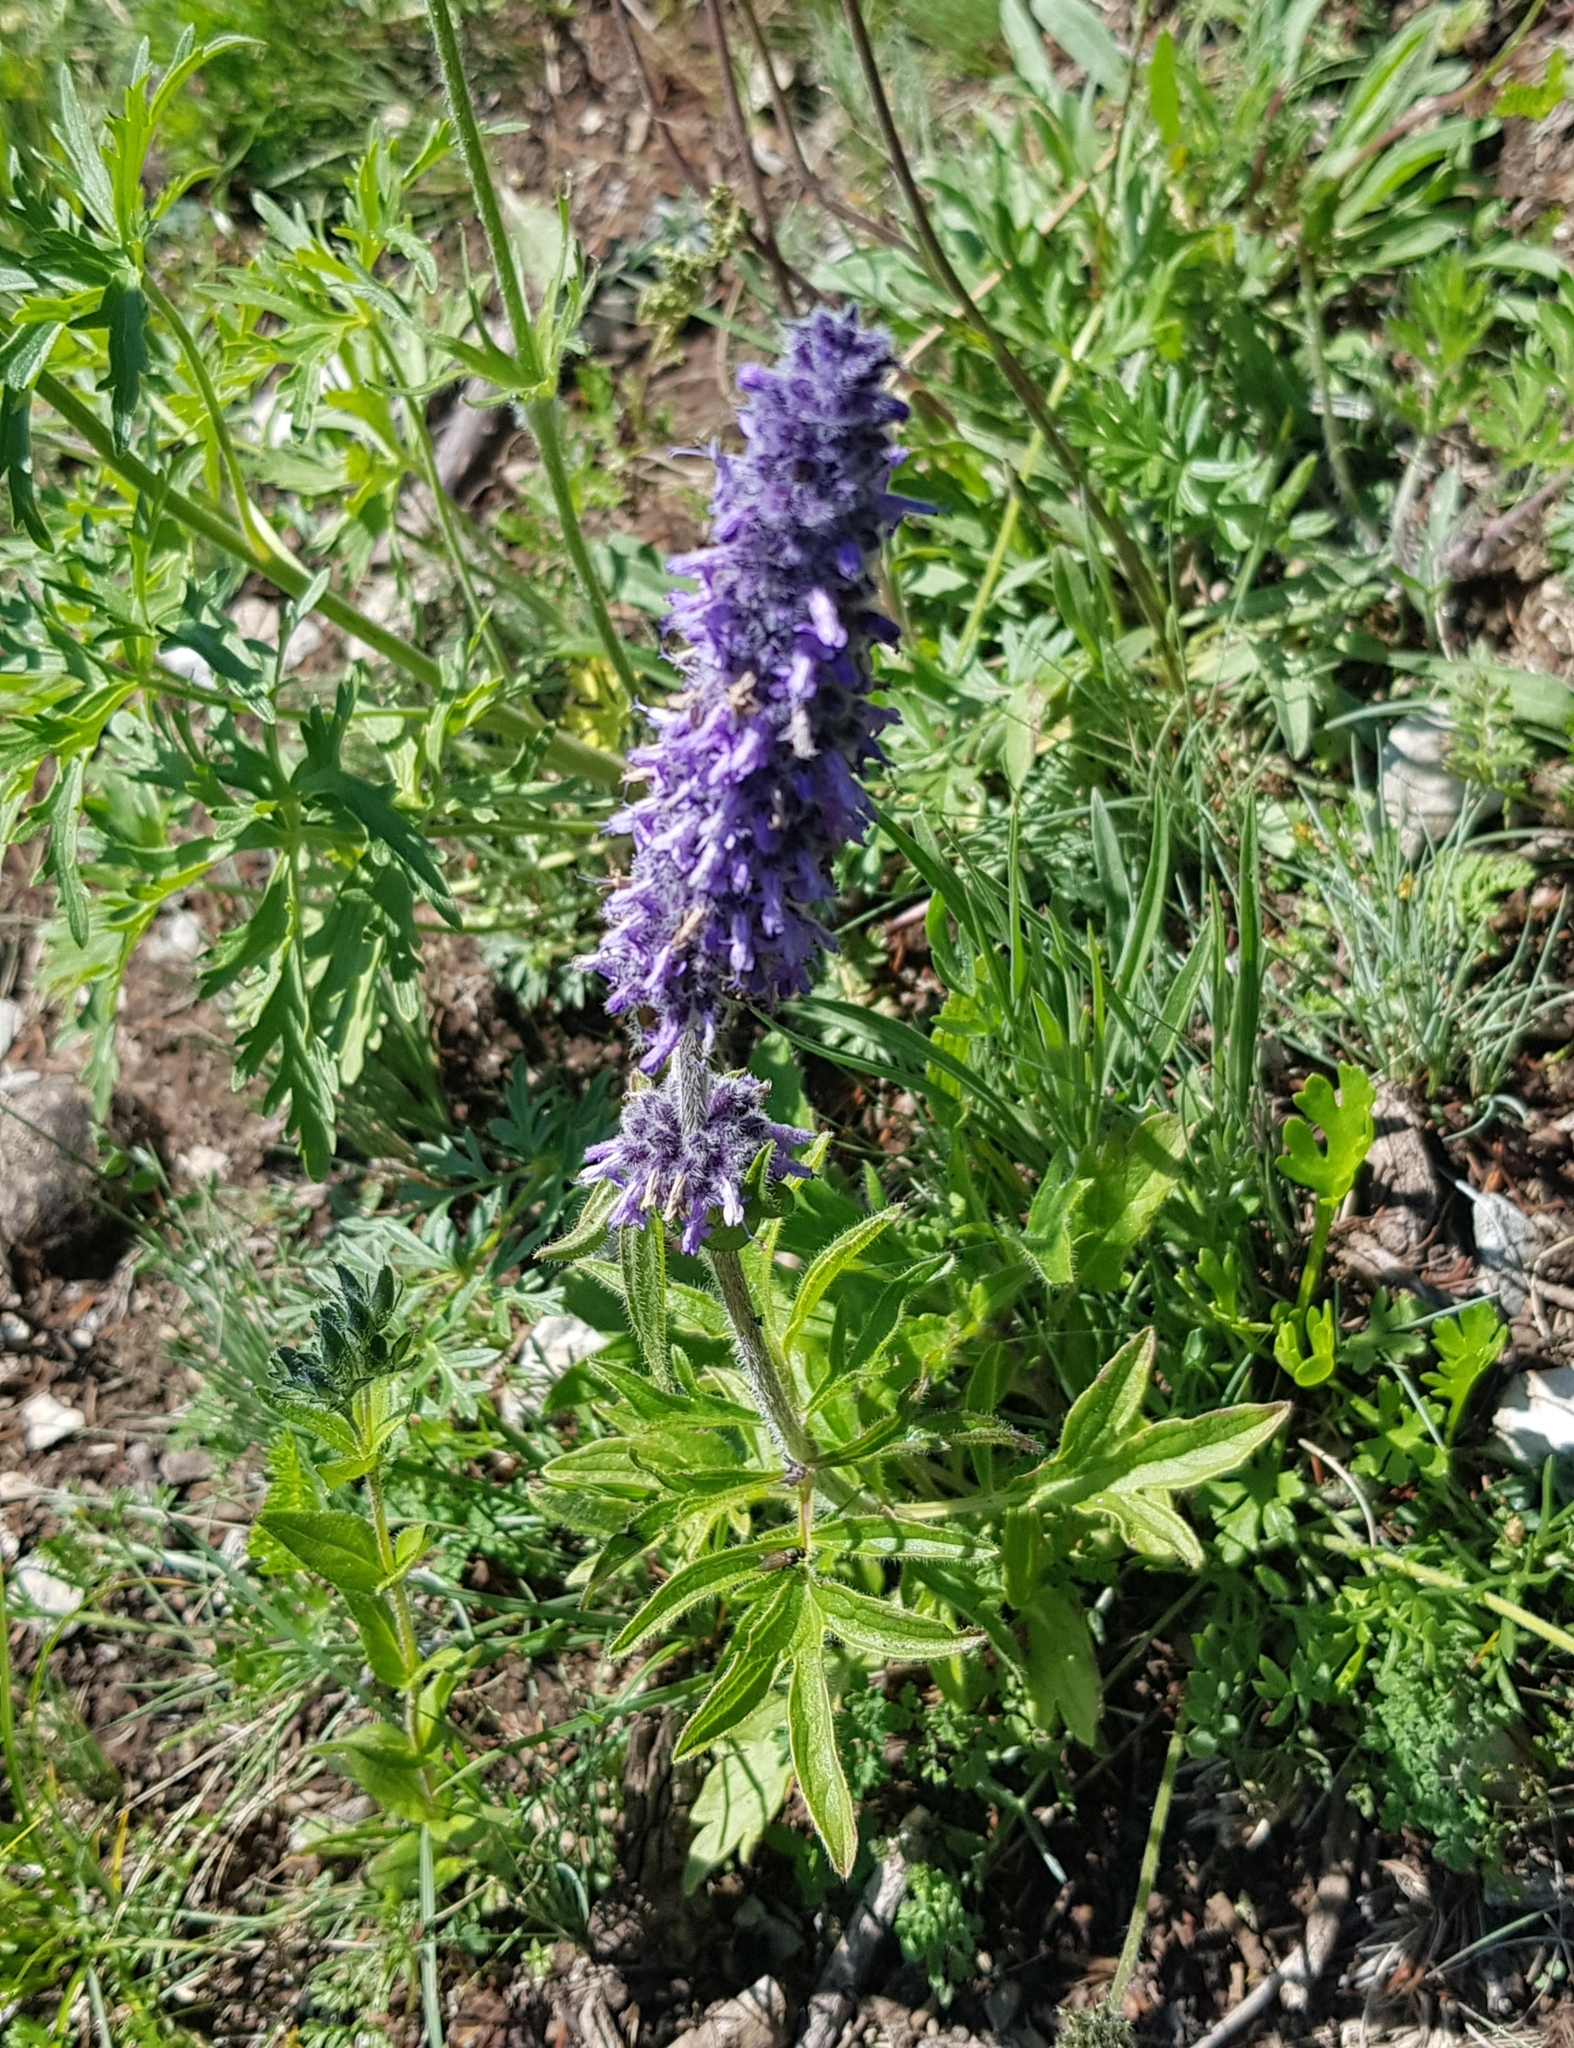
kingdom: Plantae
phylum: Tracheophyta
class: Magnoliopsida
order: Lamiales
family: Lamiaceae
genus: Nepeta
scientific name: Nepeta multifida
